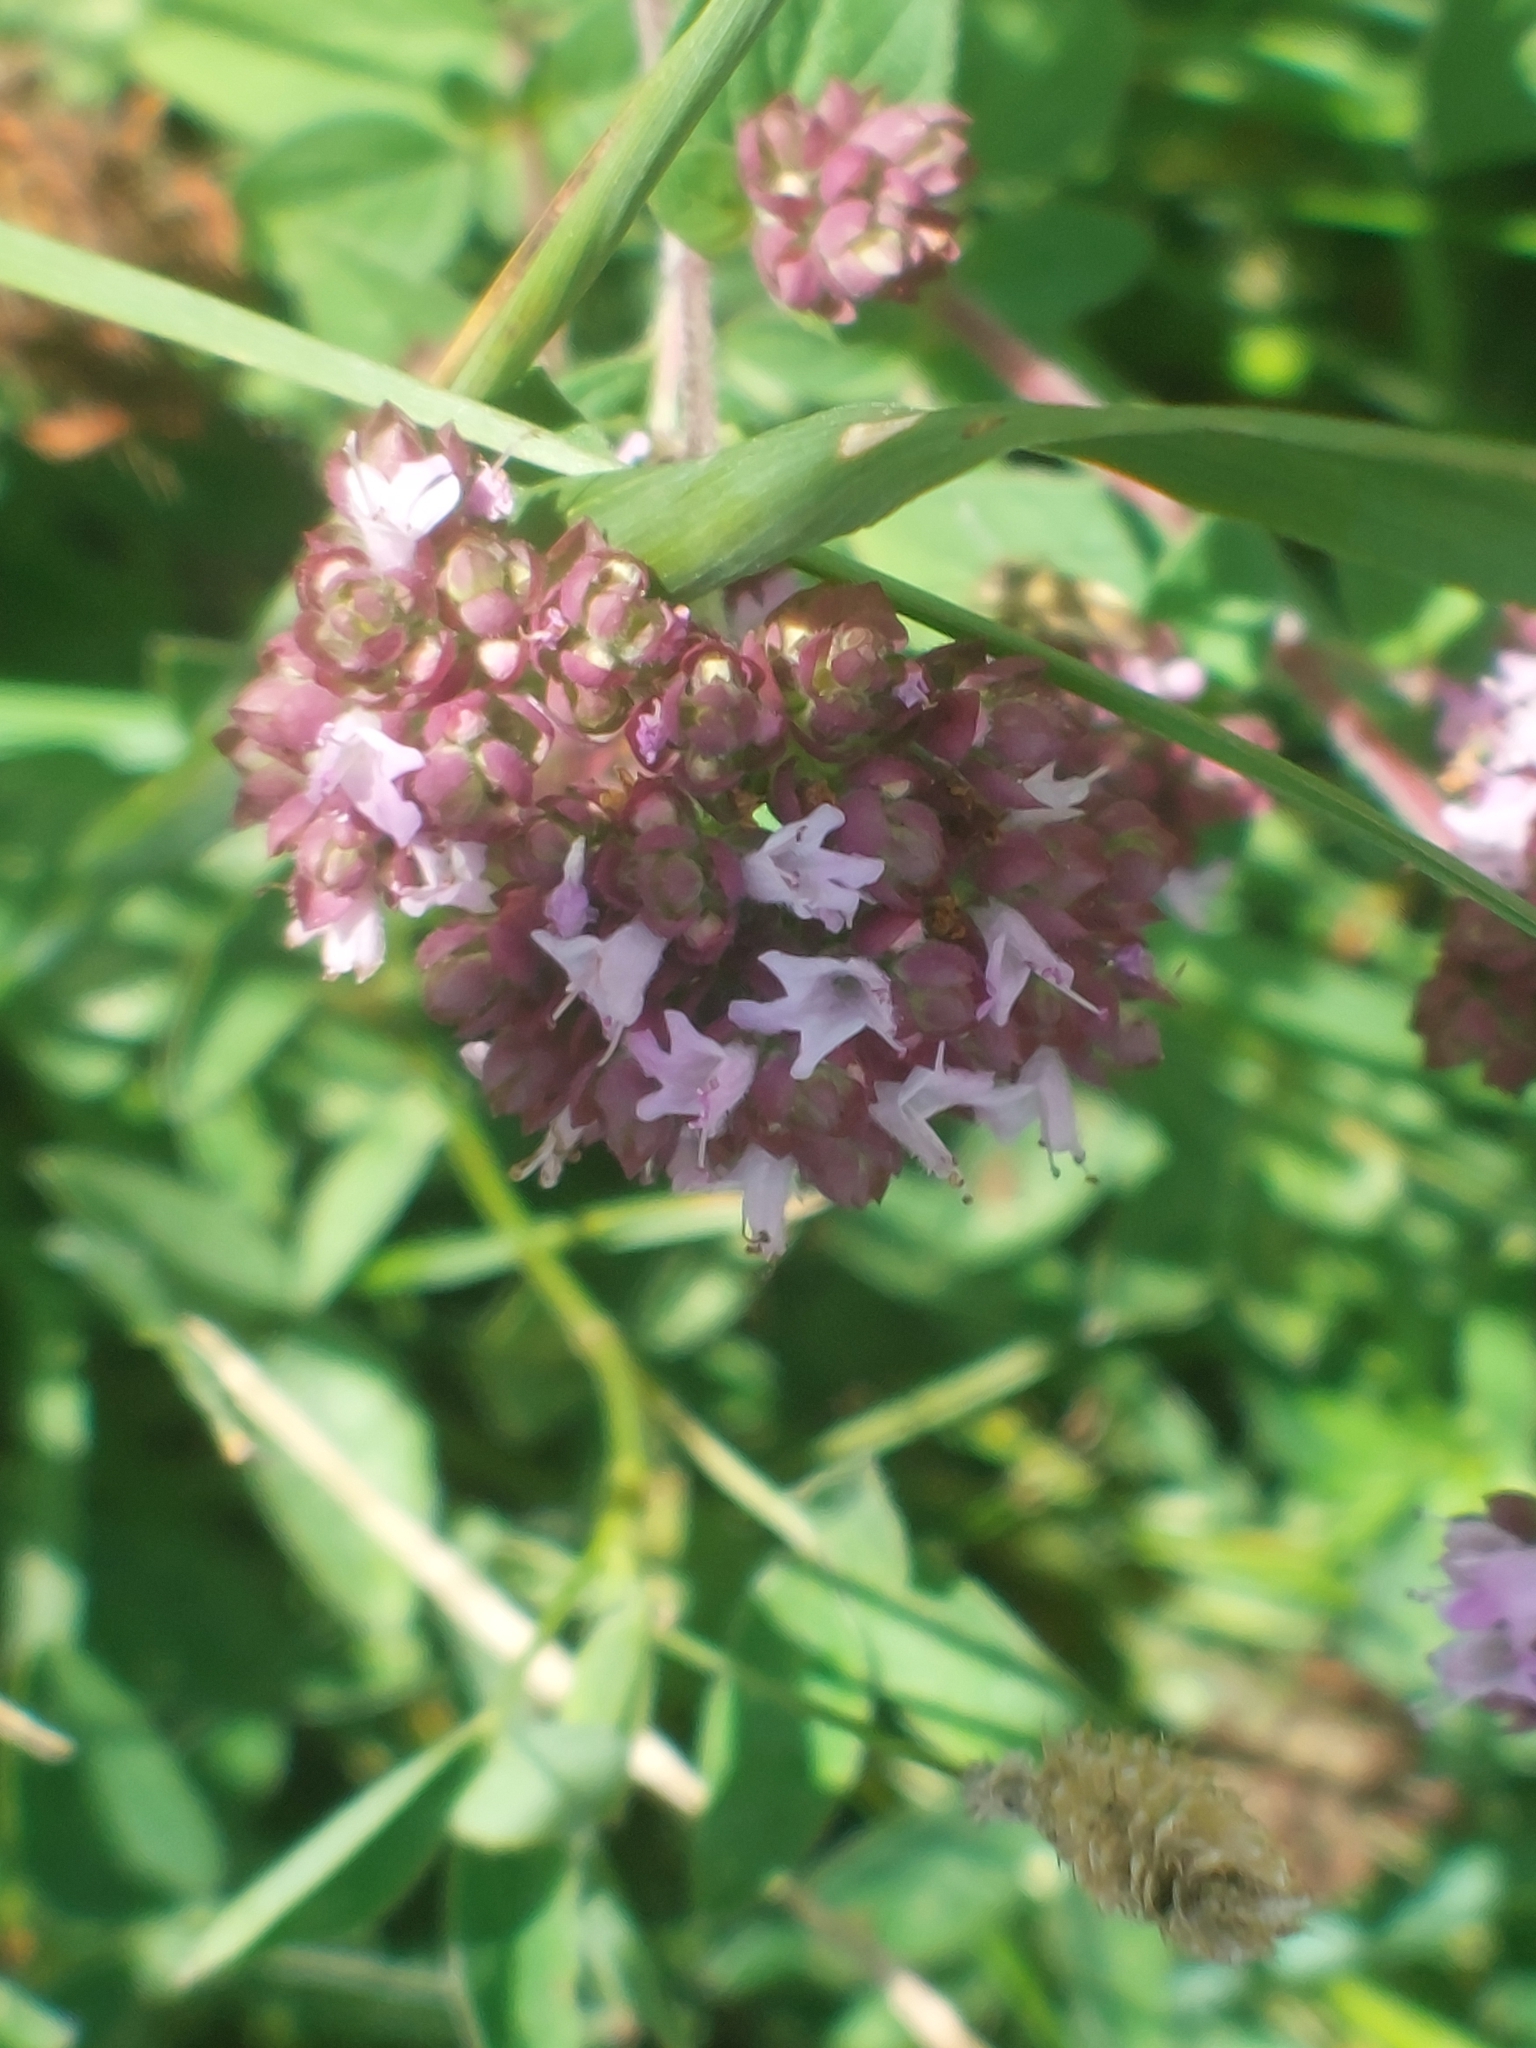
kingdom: Plantae
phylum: Tracheophyta
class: Magnoliopsida
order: Lamiales
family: Lamiaceae
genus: Origanum
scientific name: Origanum vulgare
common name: Wild marjoram
